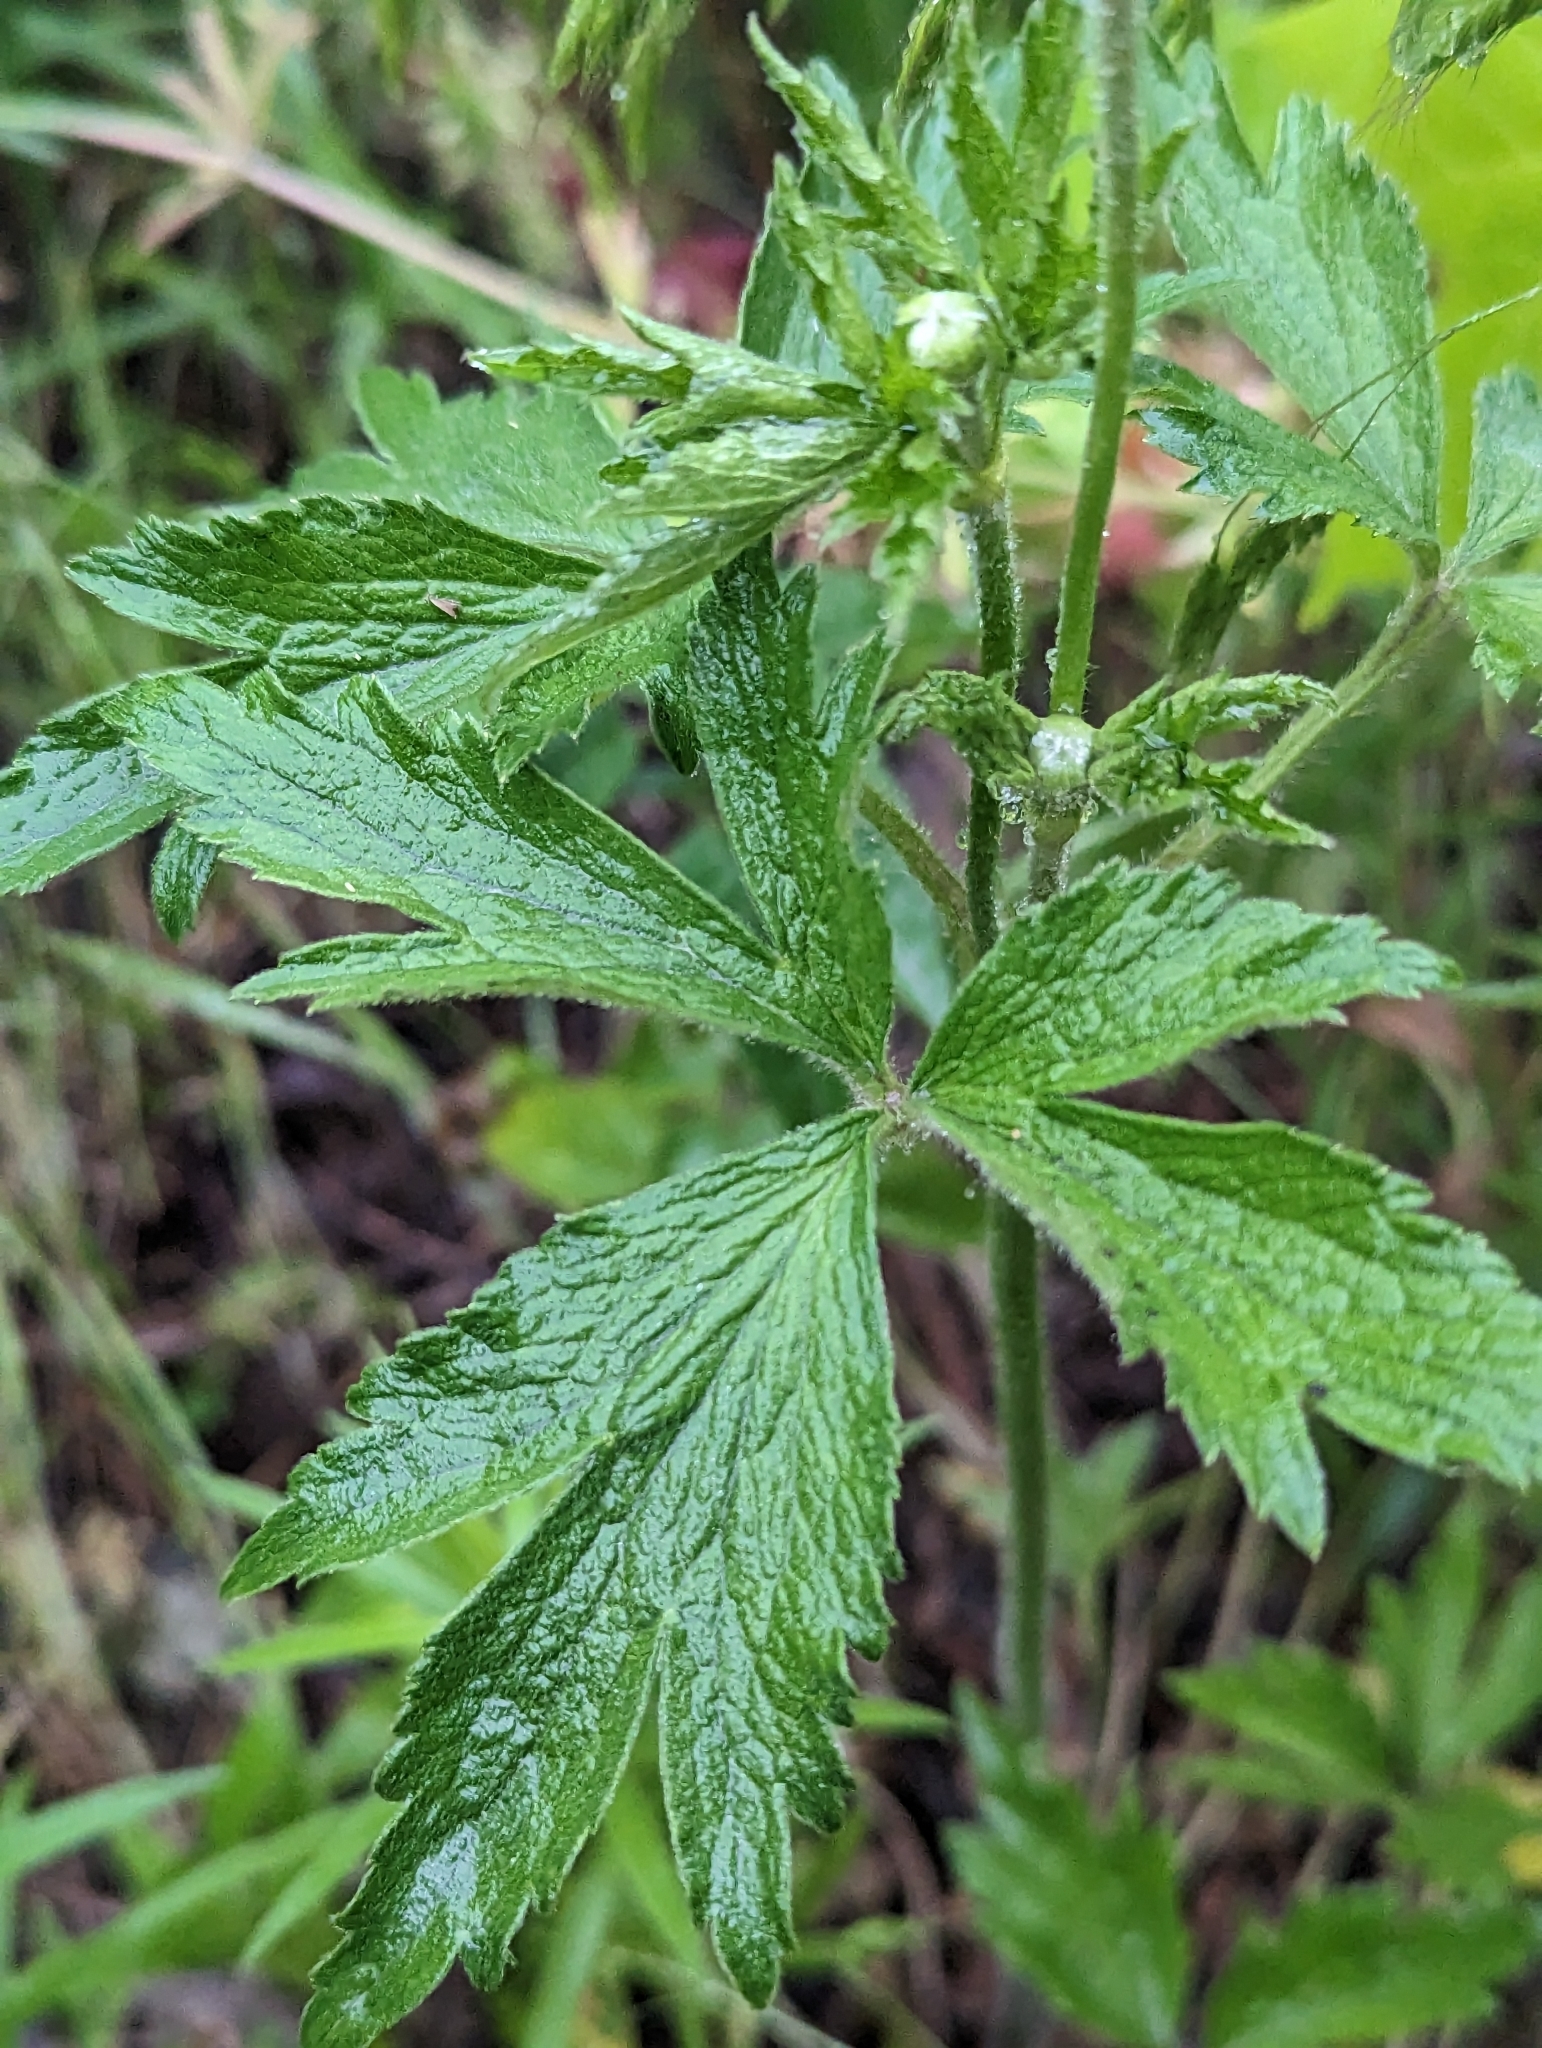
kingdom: Plantae
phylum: Tracheophyta
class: Magnoliopsida
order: Ranunculales
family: Ranunculaceae
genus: Anemone
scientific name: Anemone virginiana
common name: Tall anemone
